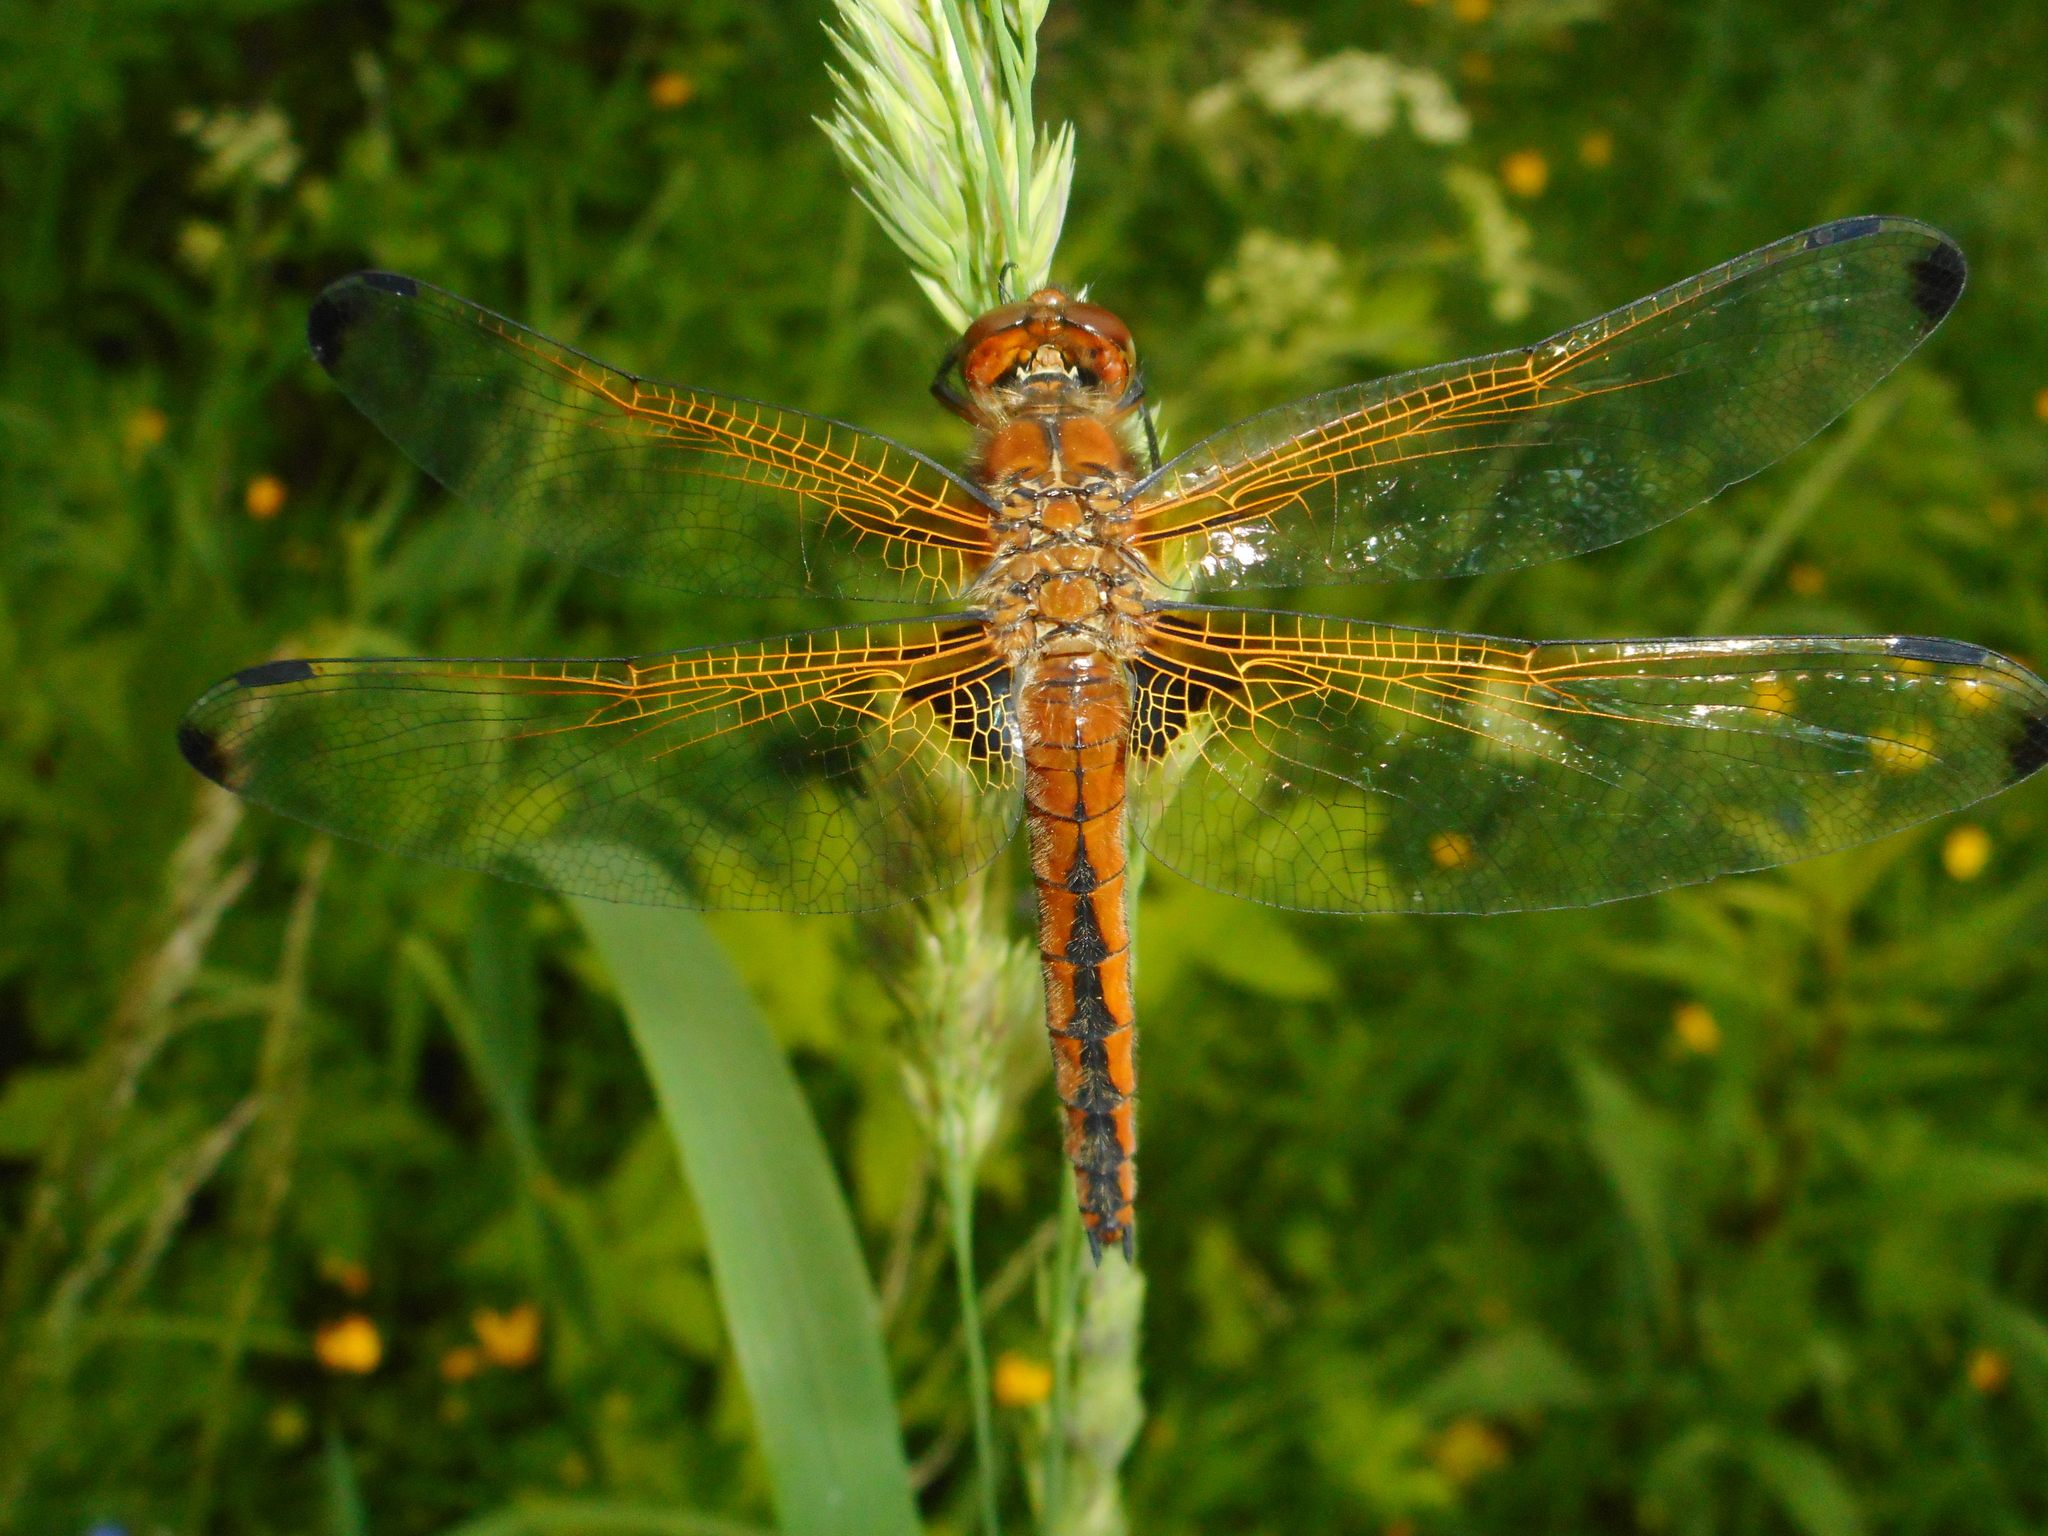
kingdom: Animalia
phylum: Arthropoda
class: Insecta
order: Odonata
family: Libellulidae
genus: Libellula
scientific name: Libellula fulva
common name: Blue chaser
